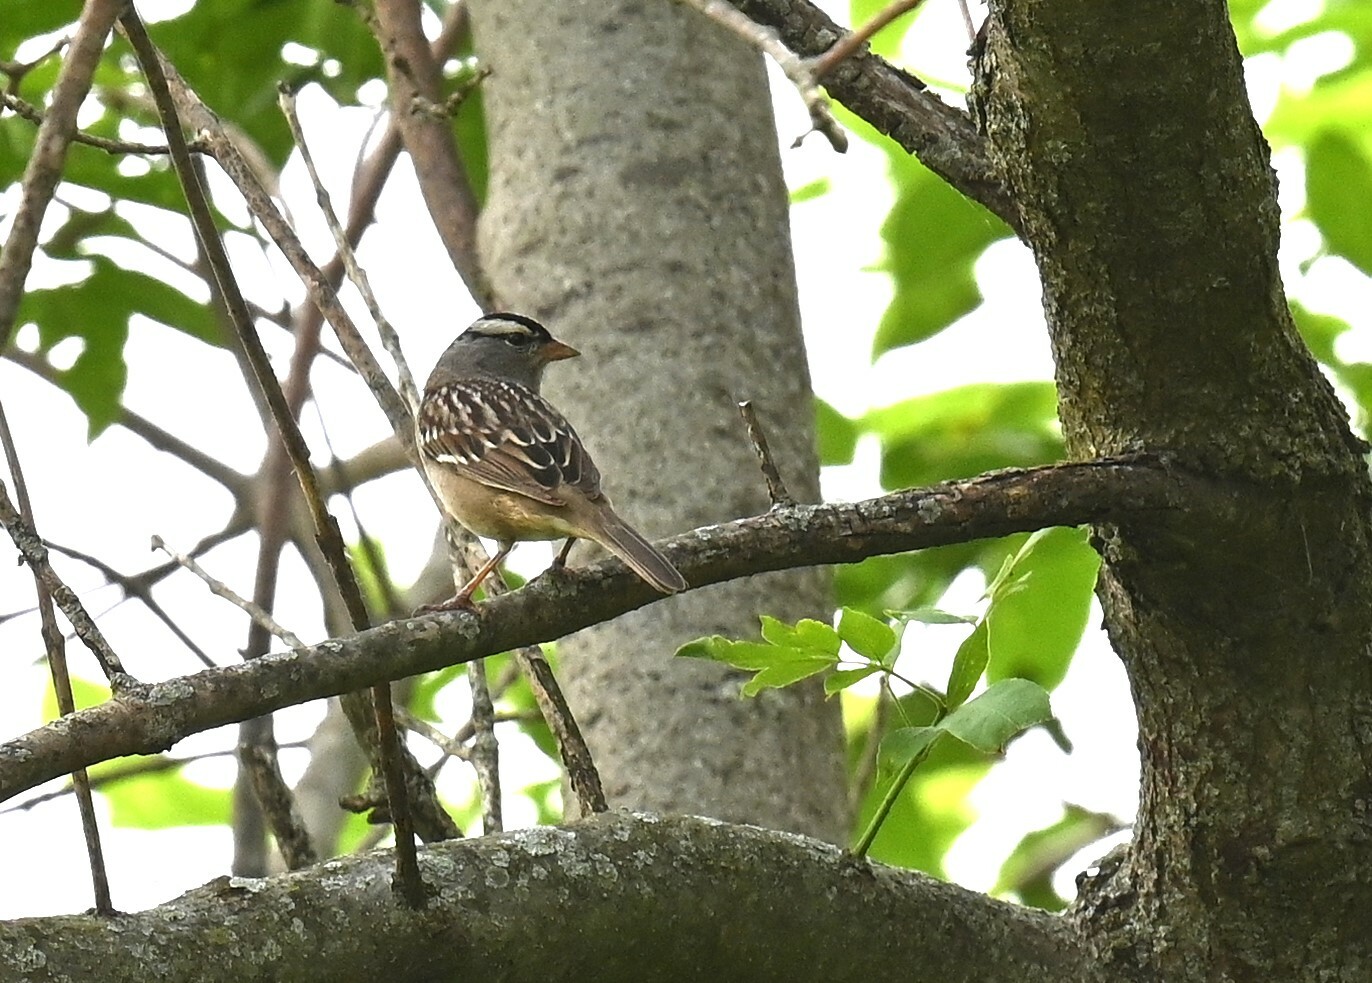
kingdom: Animalia
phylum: Chordata
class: Aves
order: Passeriformes
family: Passerellidae
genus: Zonotrichia
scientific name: Zonotrichia leucophrys
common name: White-crowned sparrow
